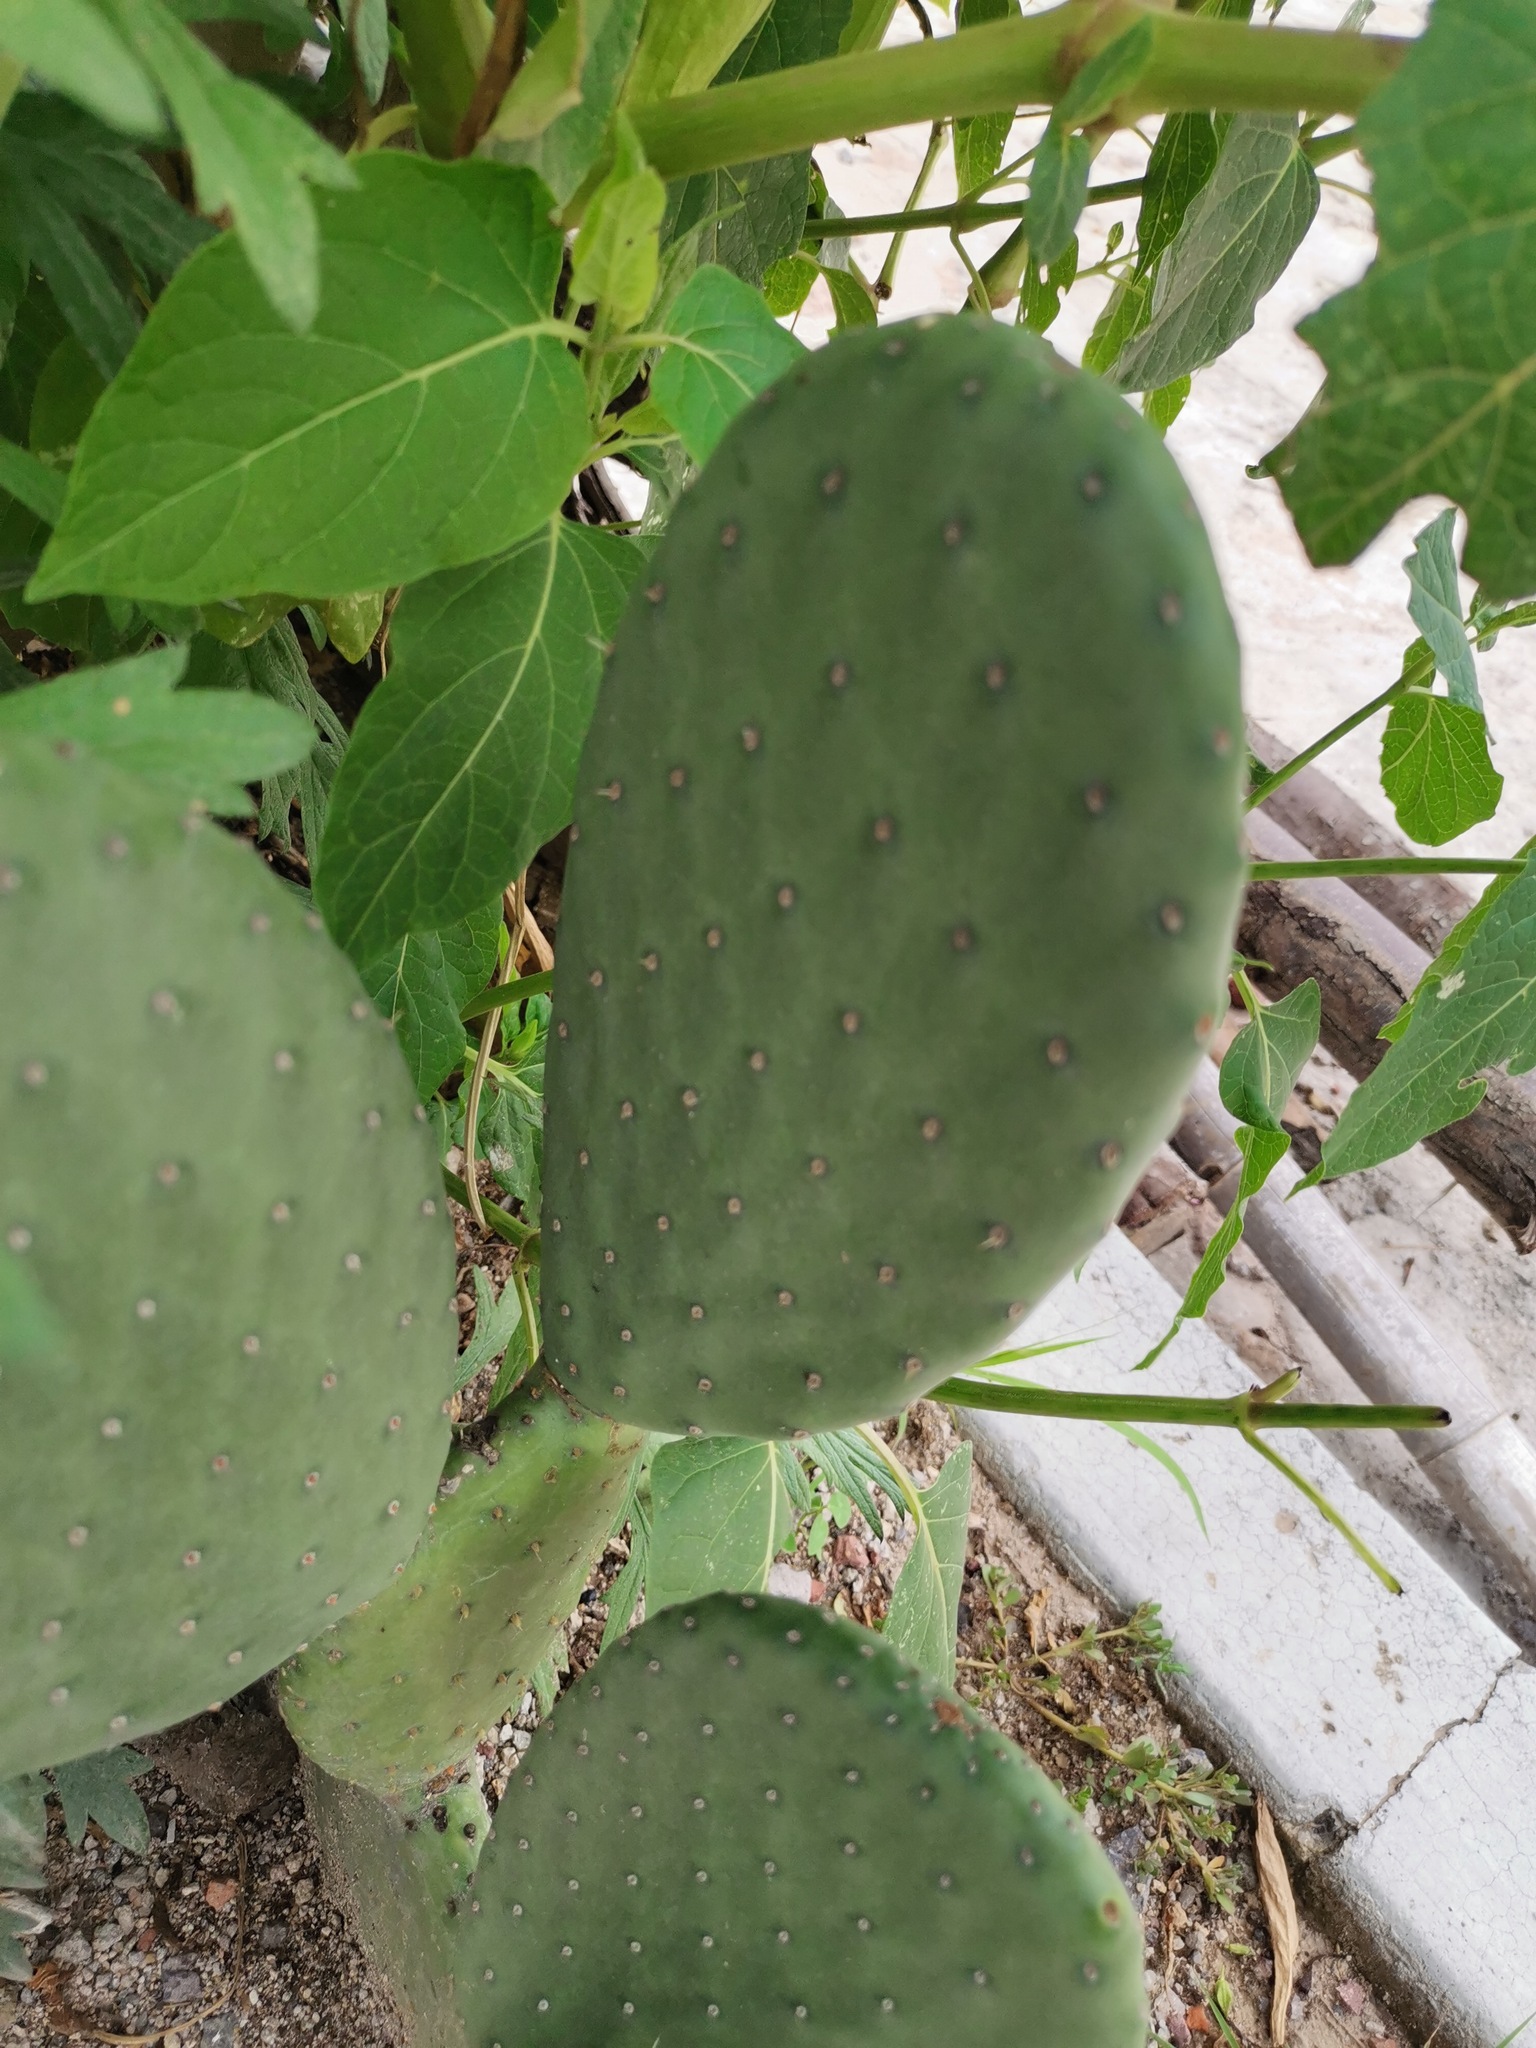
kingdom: Plantae
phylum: Tracheophyta
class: Magnoliopsida
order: Caryophyllales
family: Cactaceae
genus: Opuntia
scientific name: Opuntia ficus-indica
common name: Barbary fig
